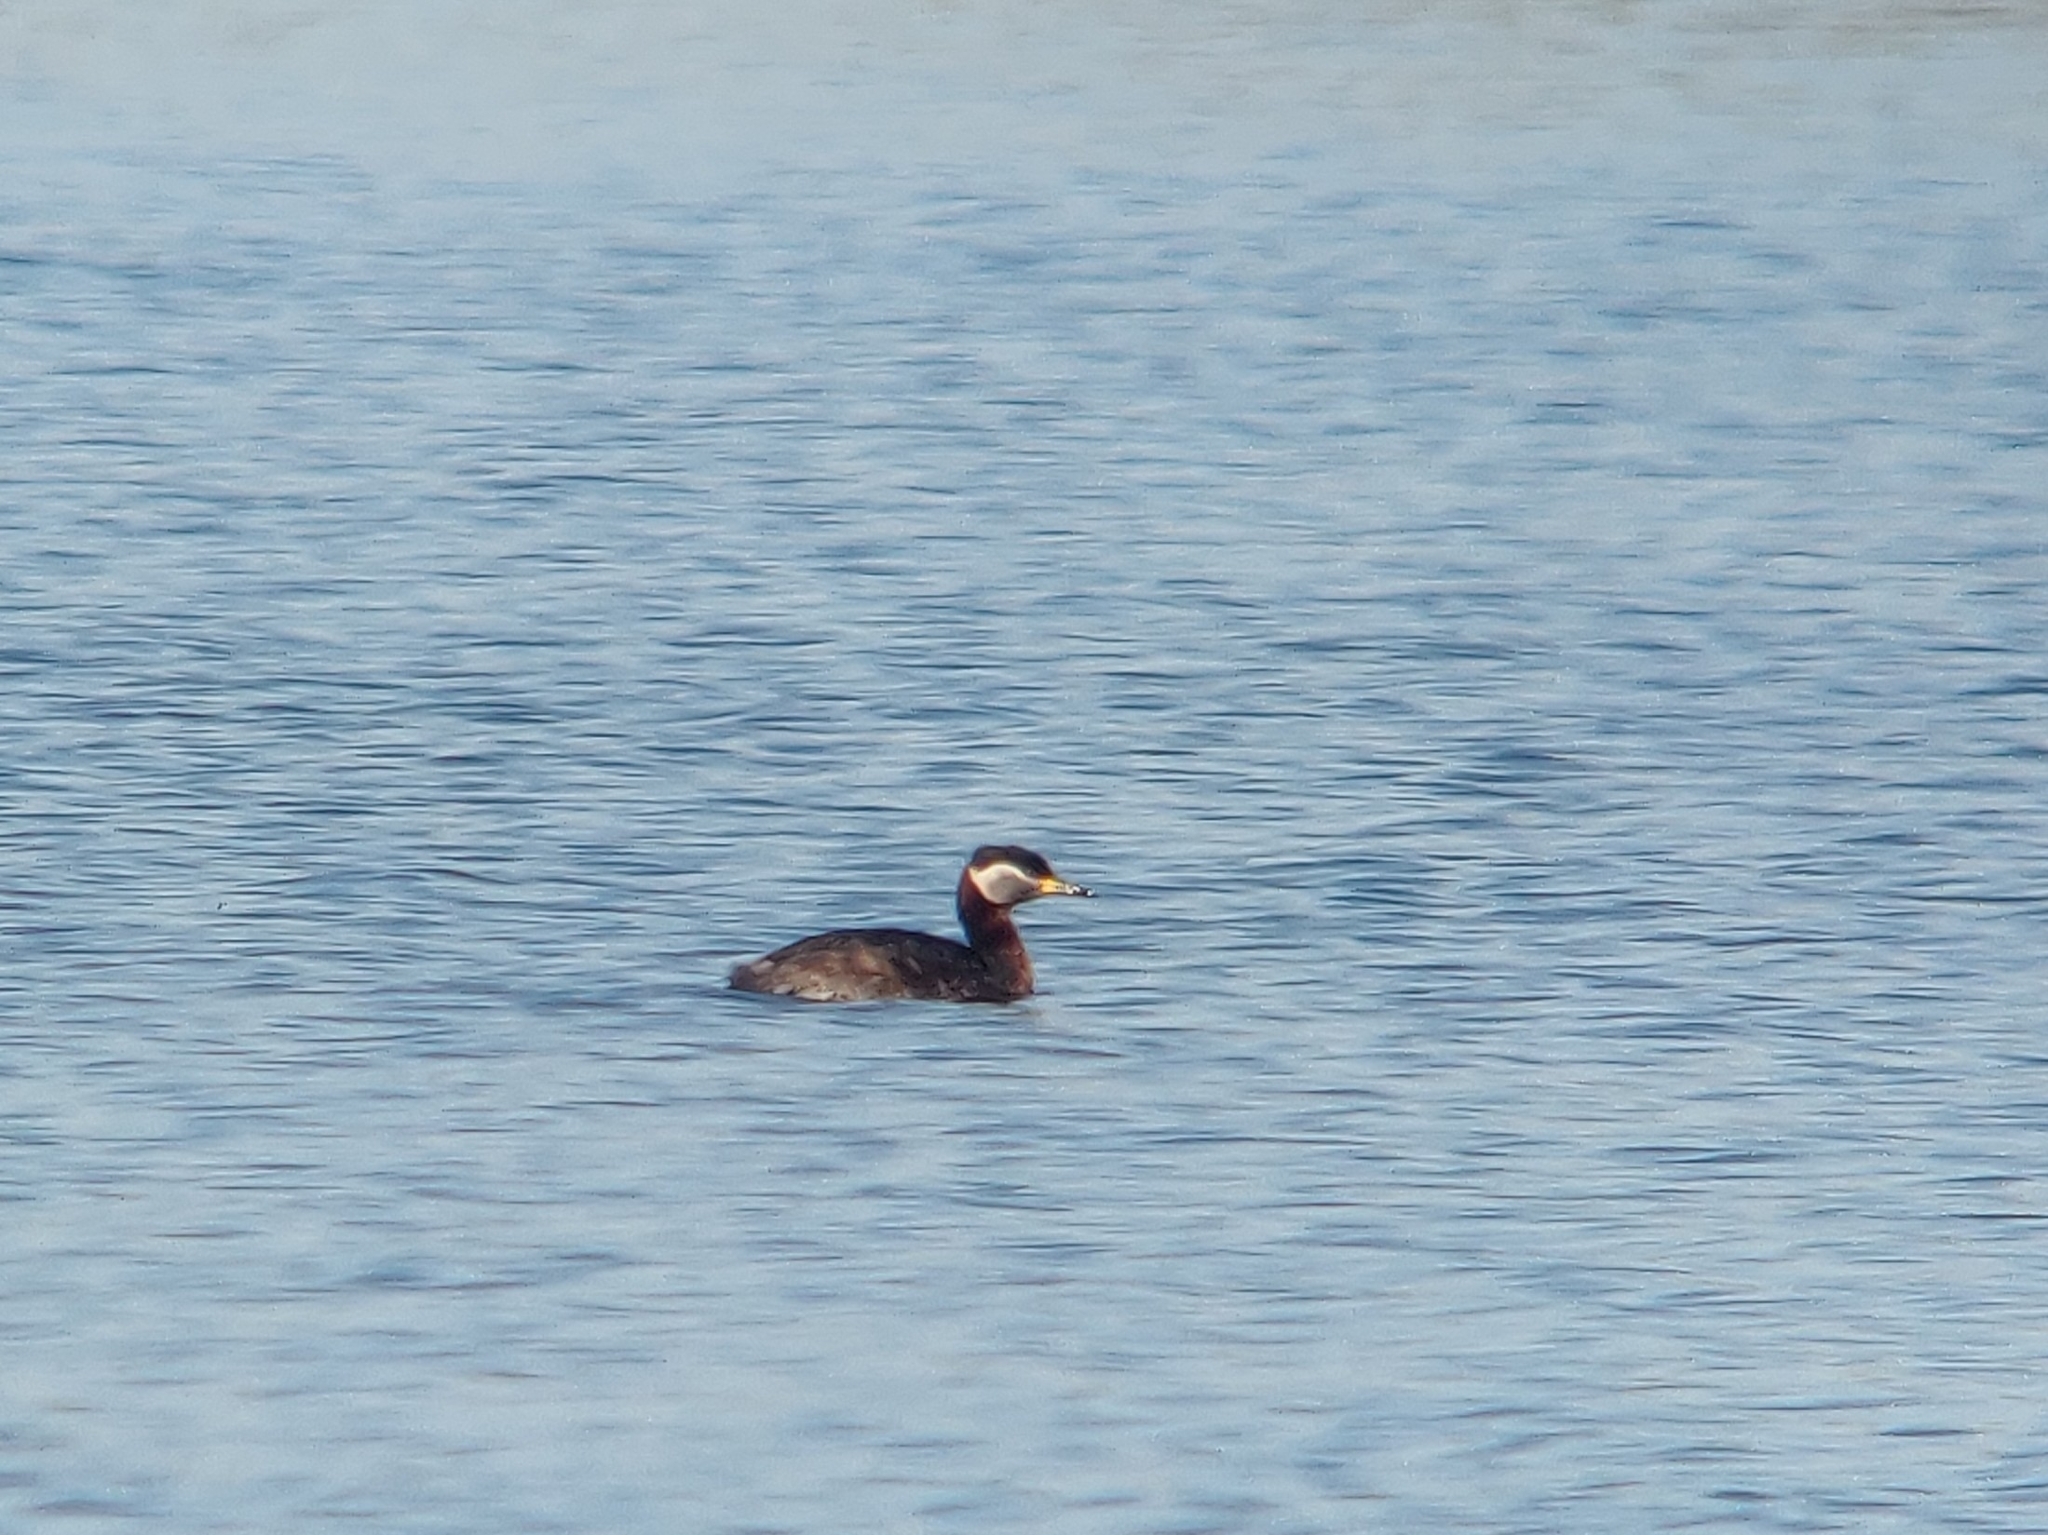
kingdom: Animalia
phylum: Chordata
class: Aves
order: Podicipediformes
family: Podicipedidae
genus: Podiceps
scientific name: Podiceps grisegena
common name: Red-necked grebe
